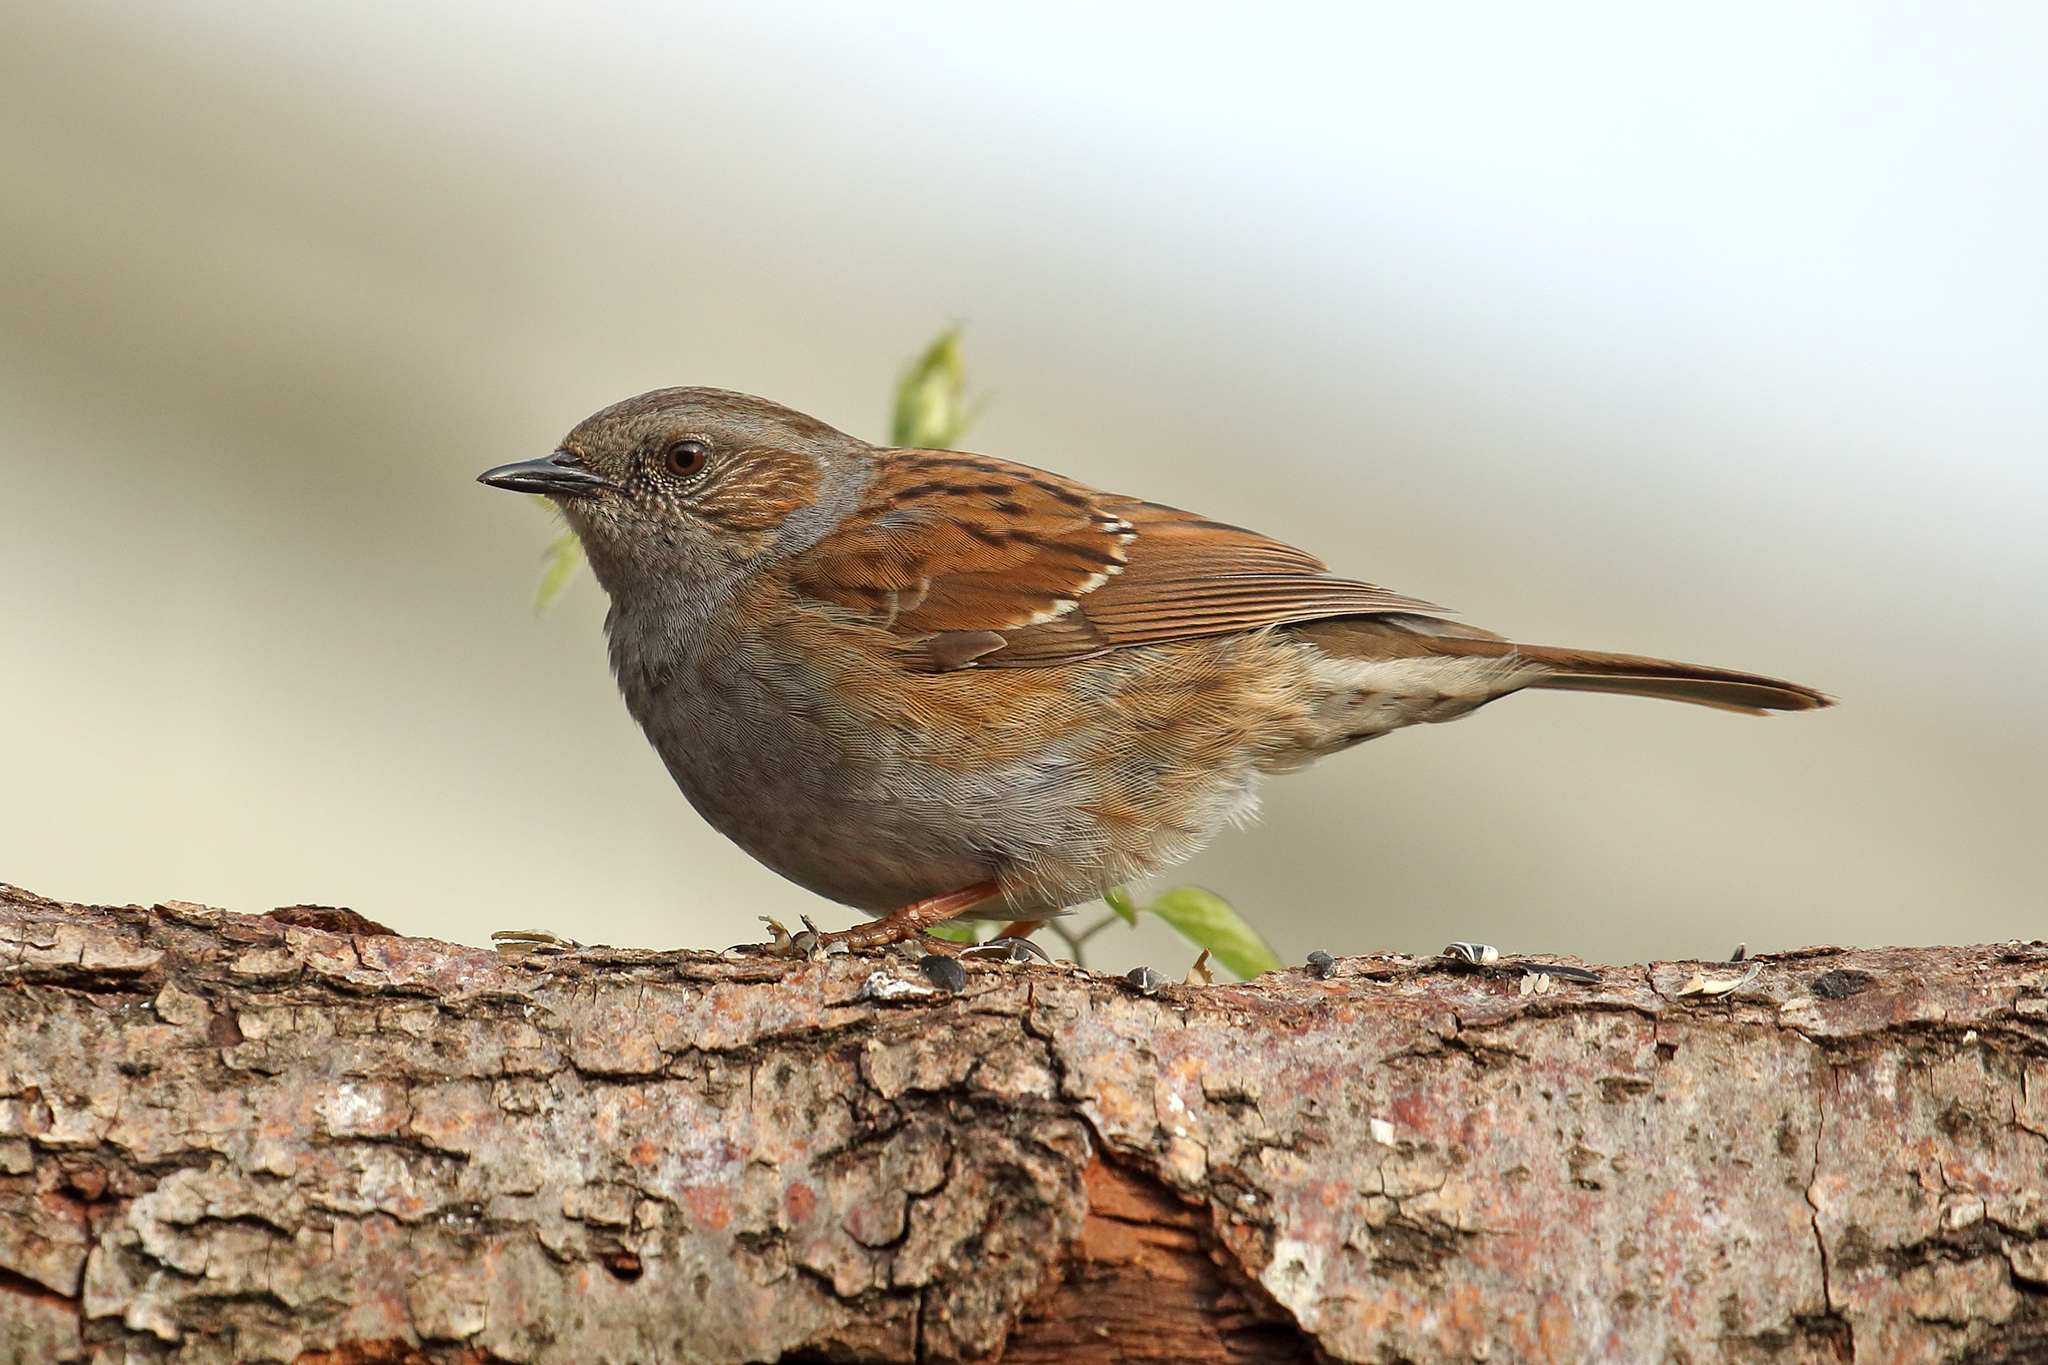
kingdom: Animalia
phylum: Chordata
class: Aves
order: Passeriformes
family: Prunellidae
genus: Prunella
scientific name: Prunella modularis
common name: Dunnock
